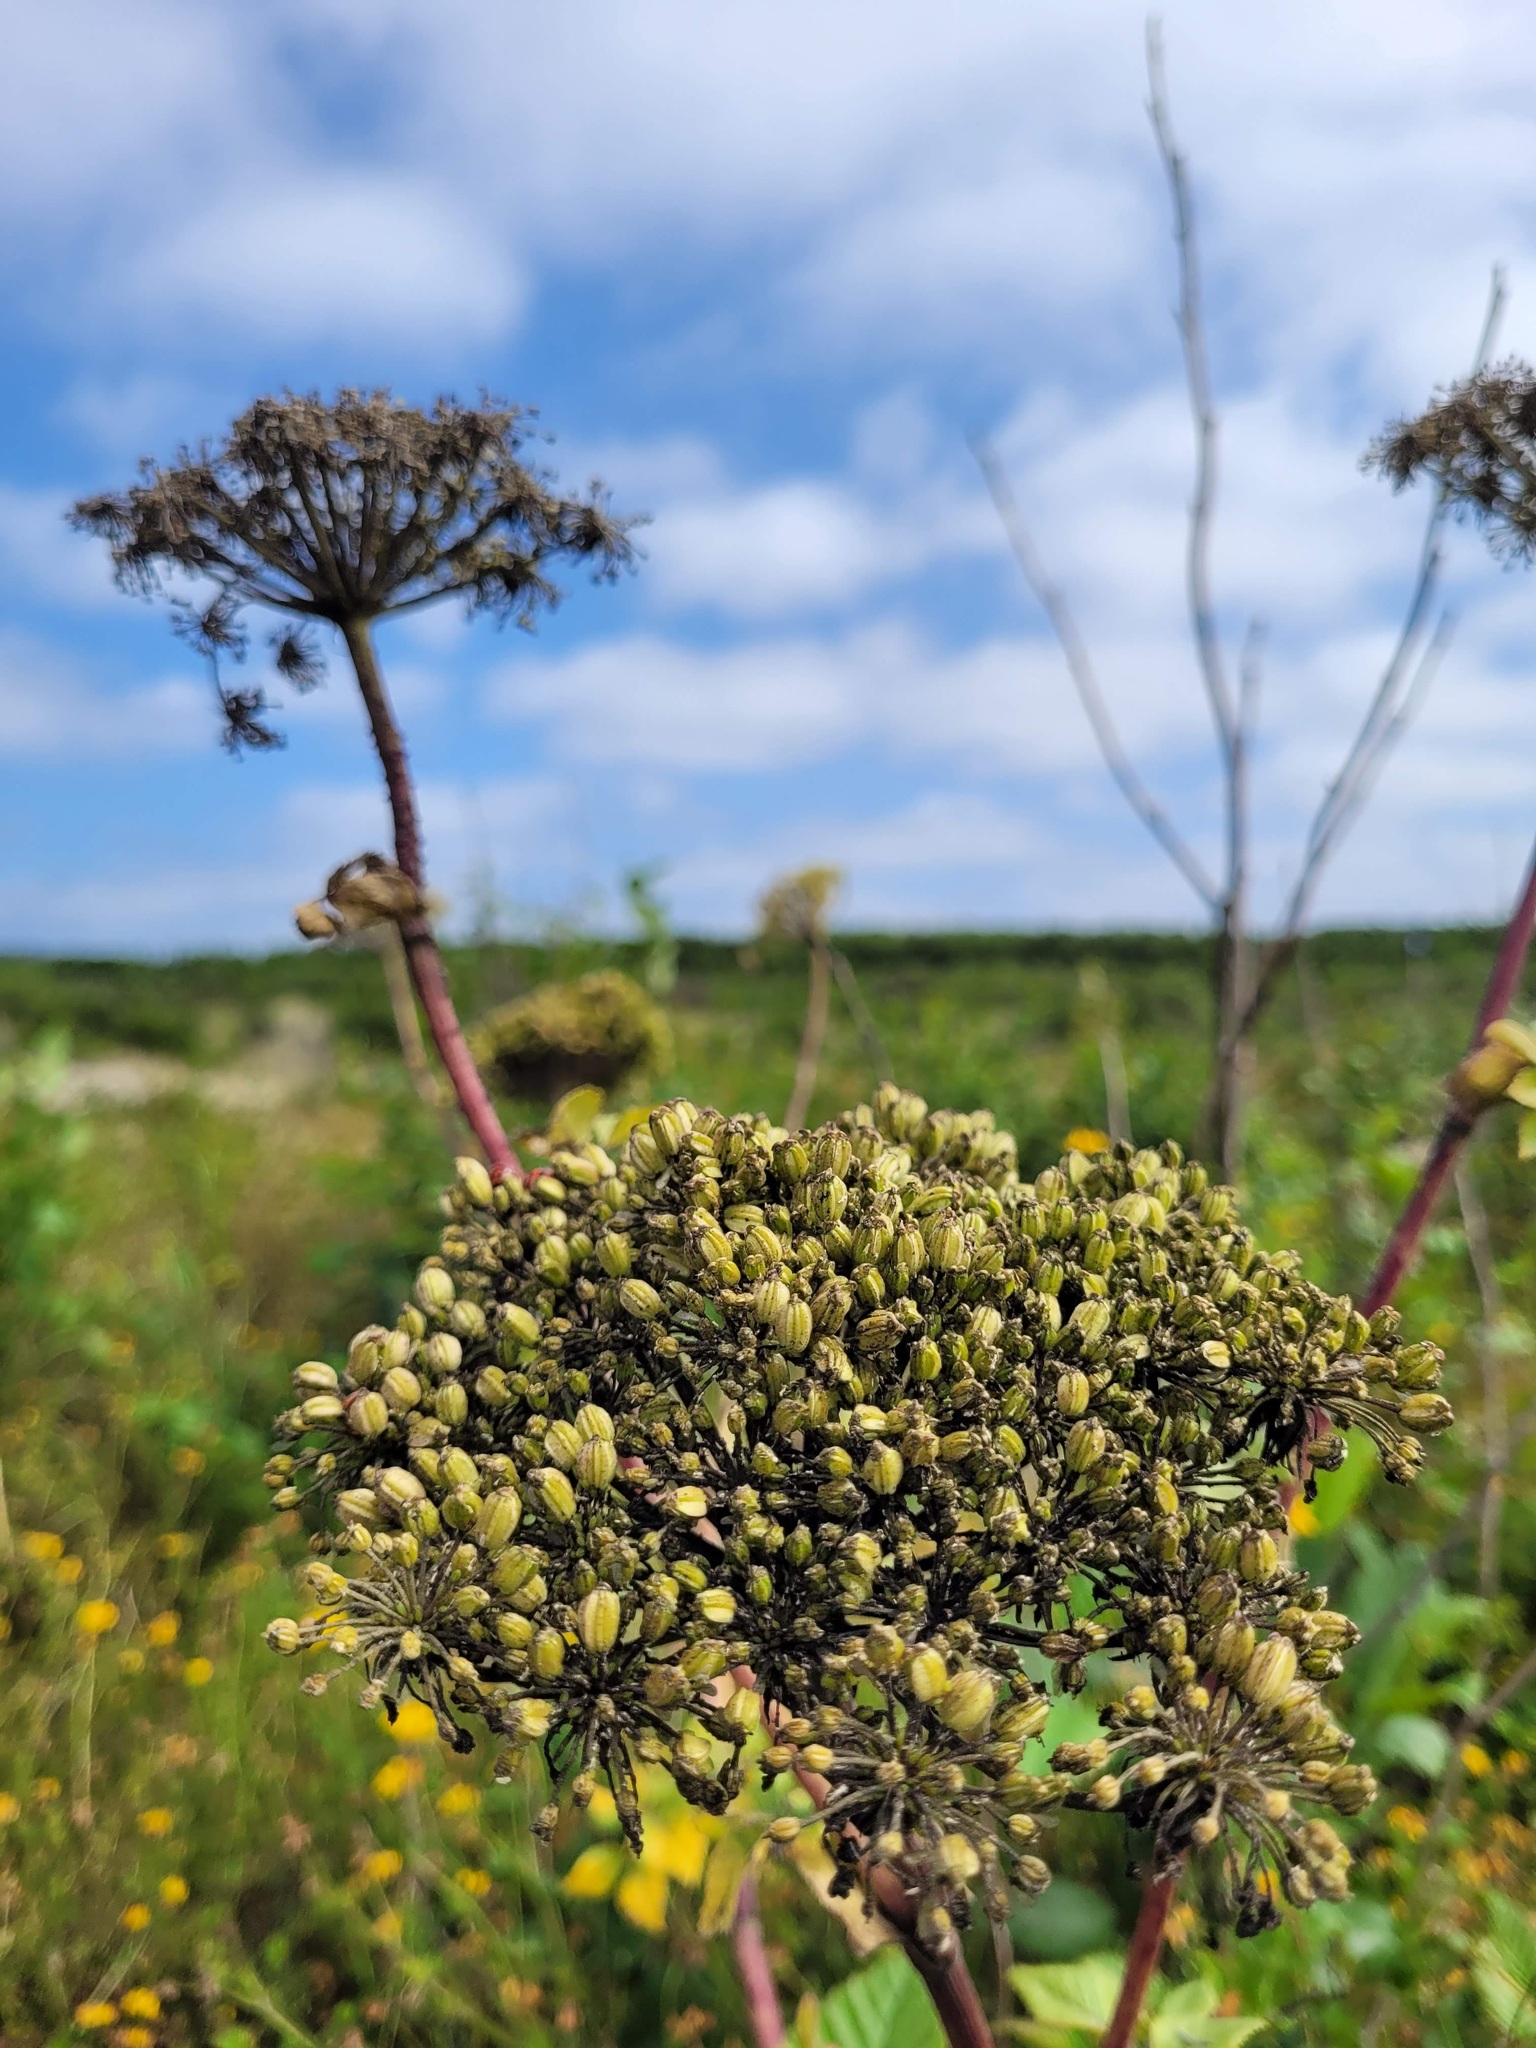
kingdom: Plantae
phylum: Tracheophyta
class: Magnoliopsida
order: Apiales
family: Apiaceae
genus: Angelica
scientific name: Angelica lucida
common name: Seabeach angelica
